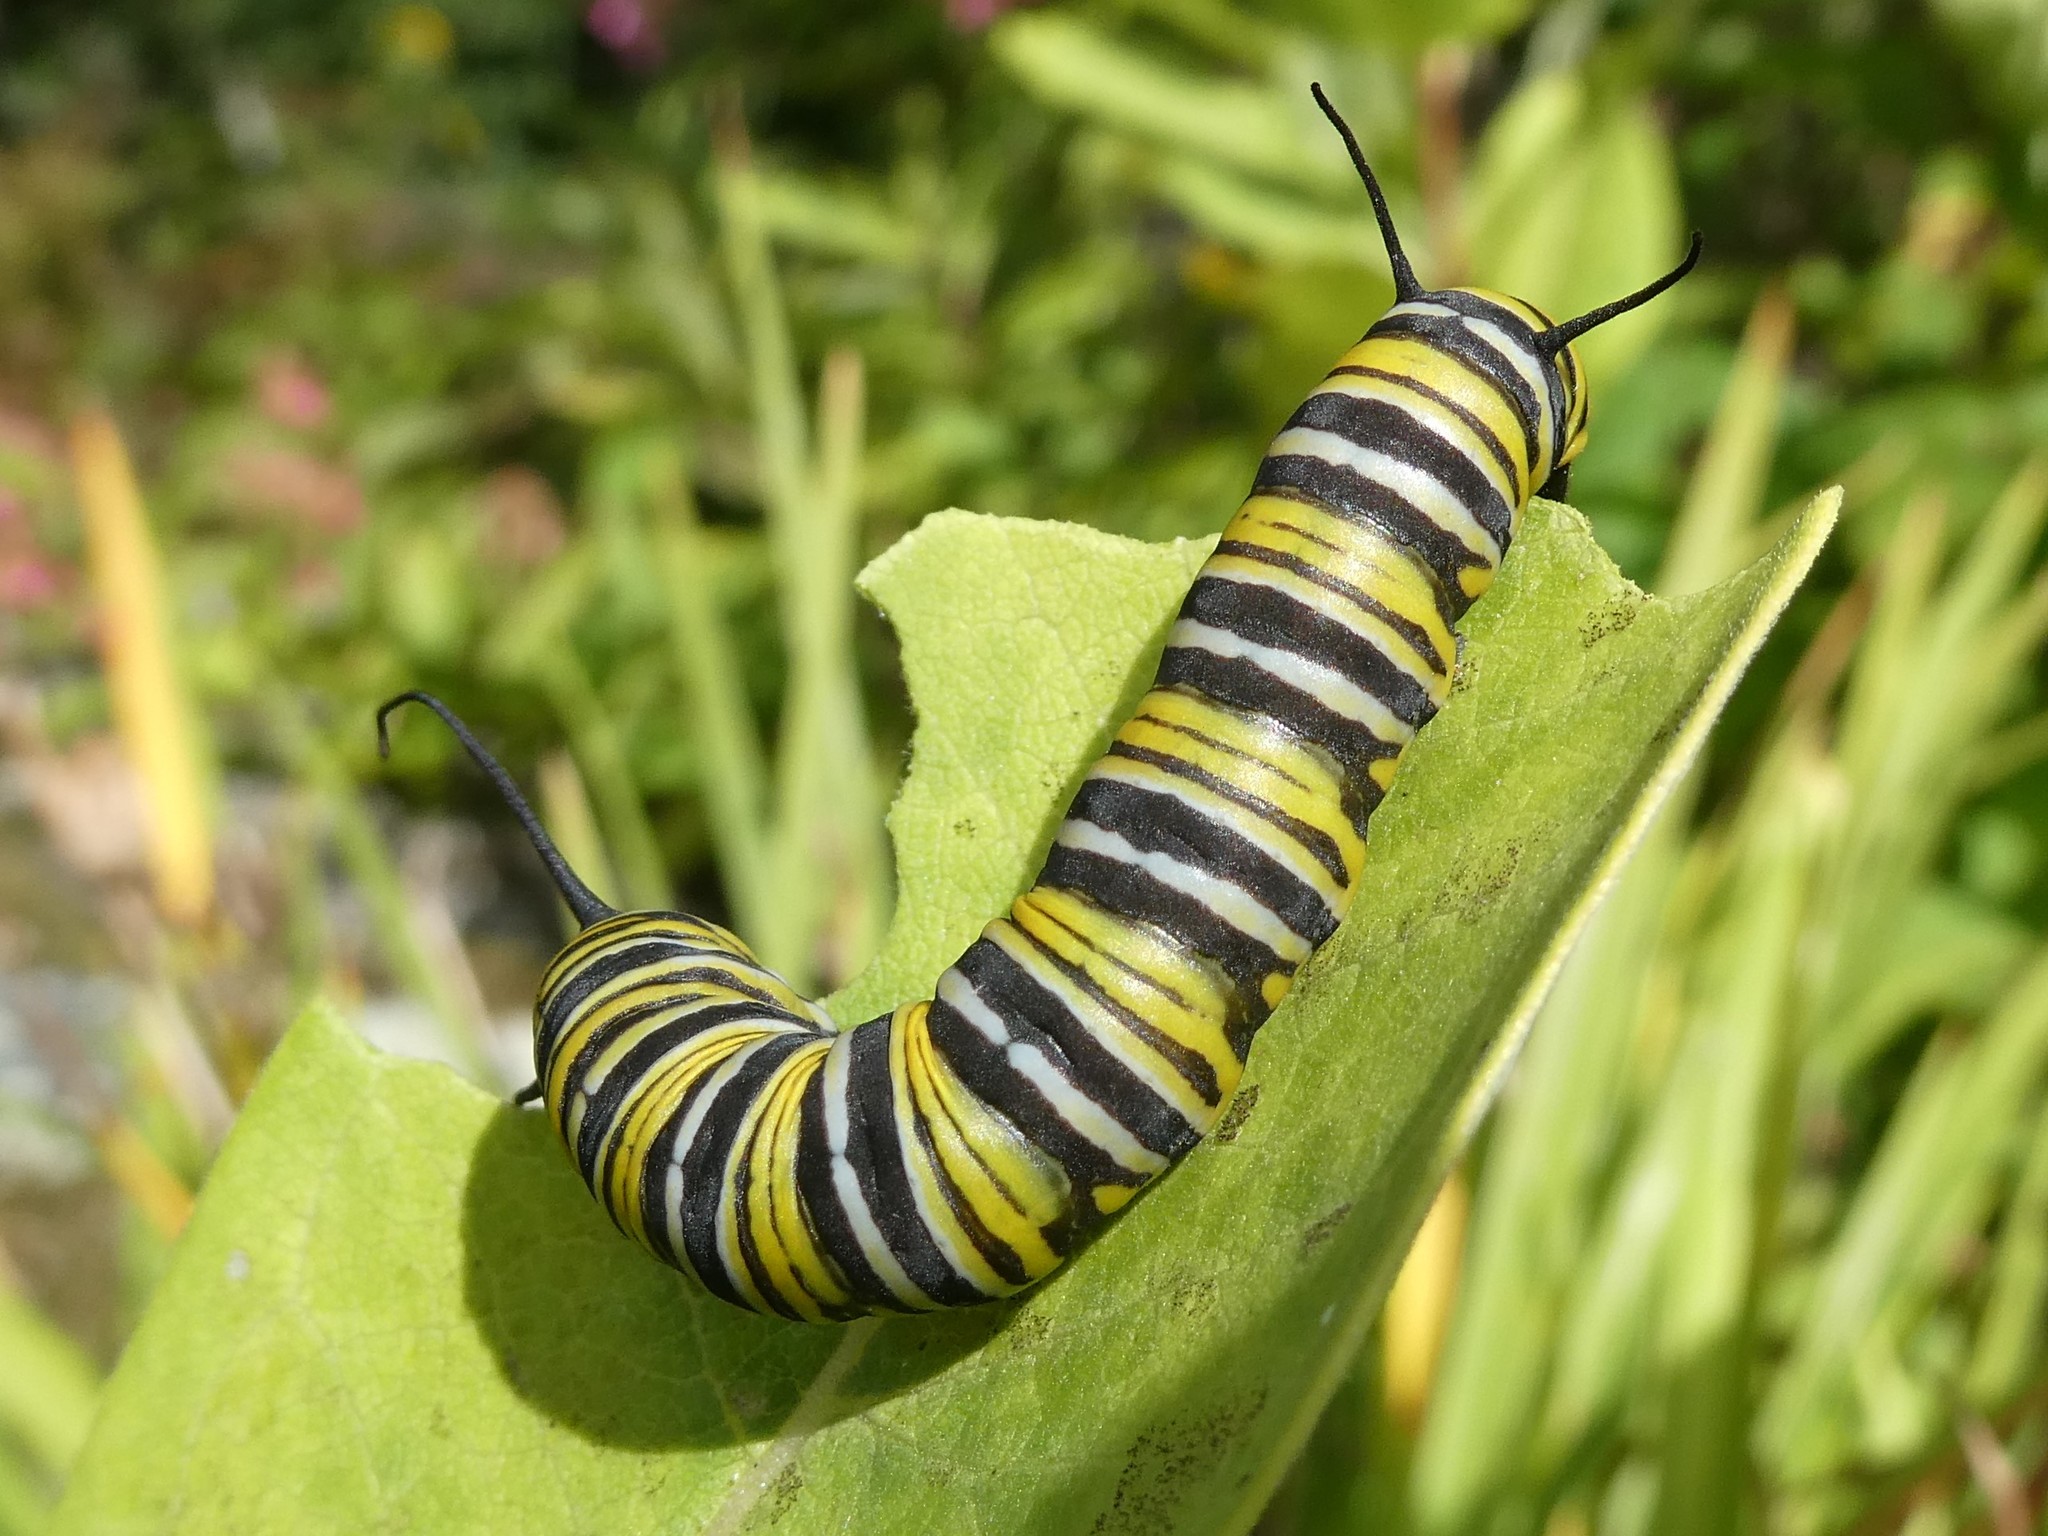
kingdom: Animalia
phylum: Arthropoda
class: Insecta
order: Lepidoptera
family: Nymphalidae
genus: Danaus
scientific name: Danaus plexippus
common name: Monarch
